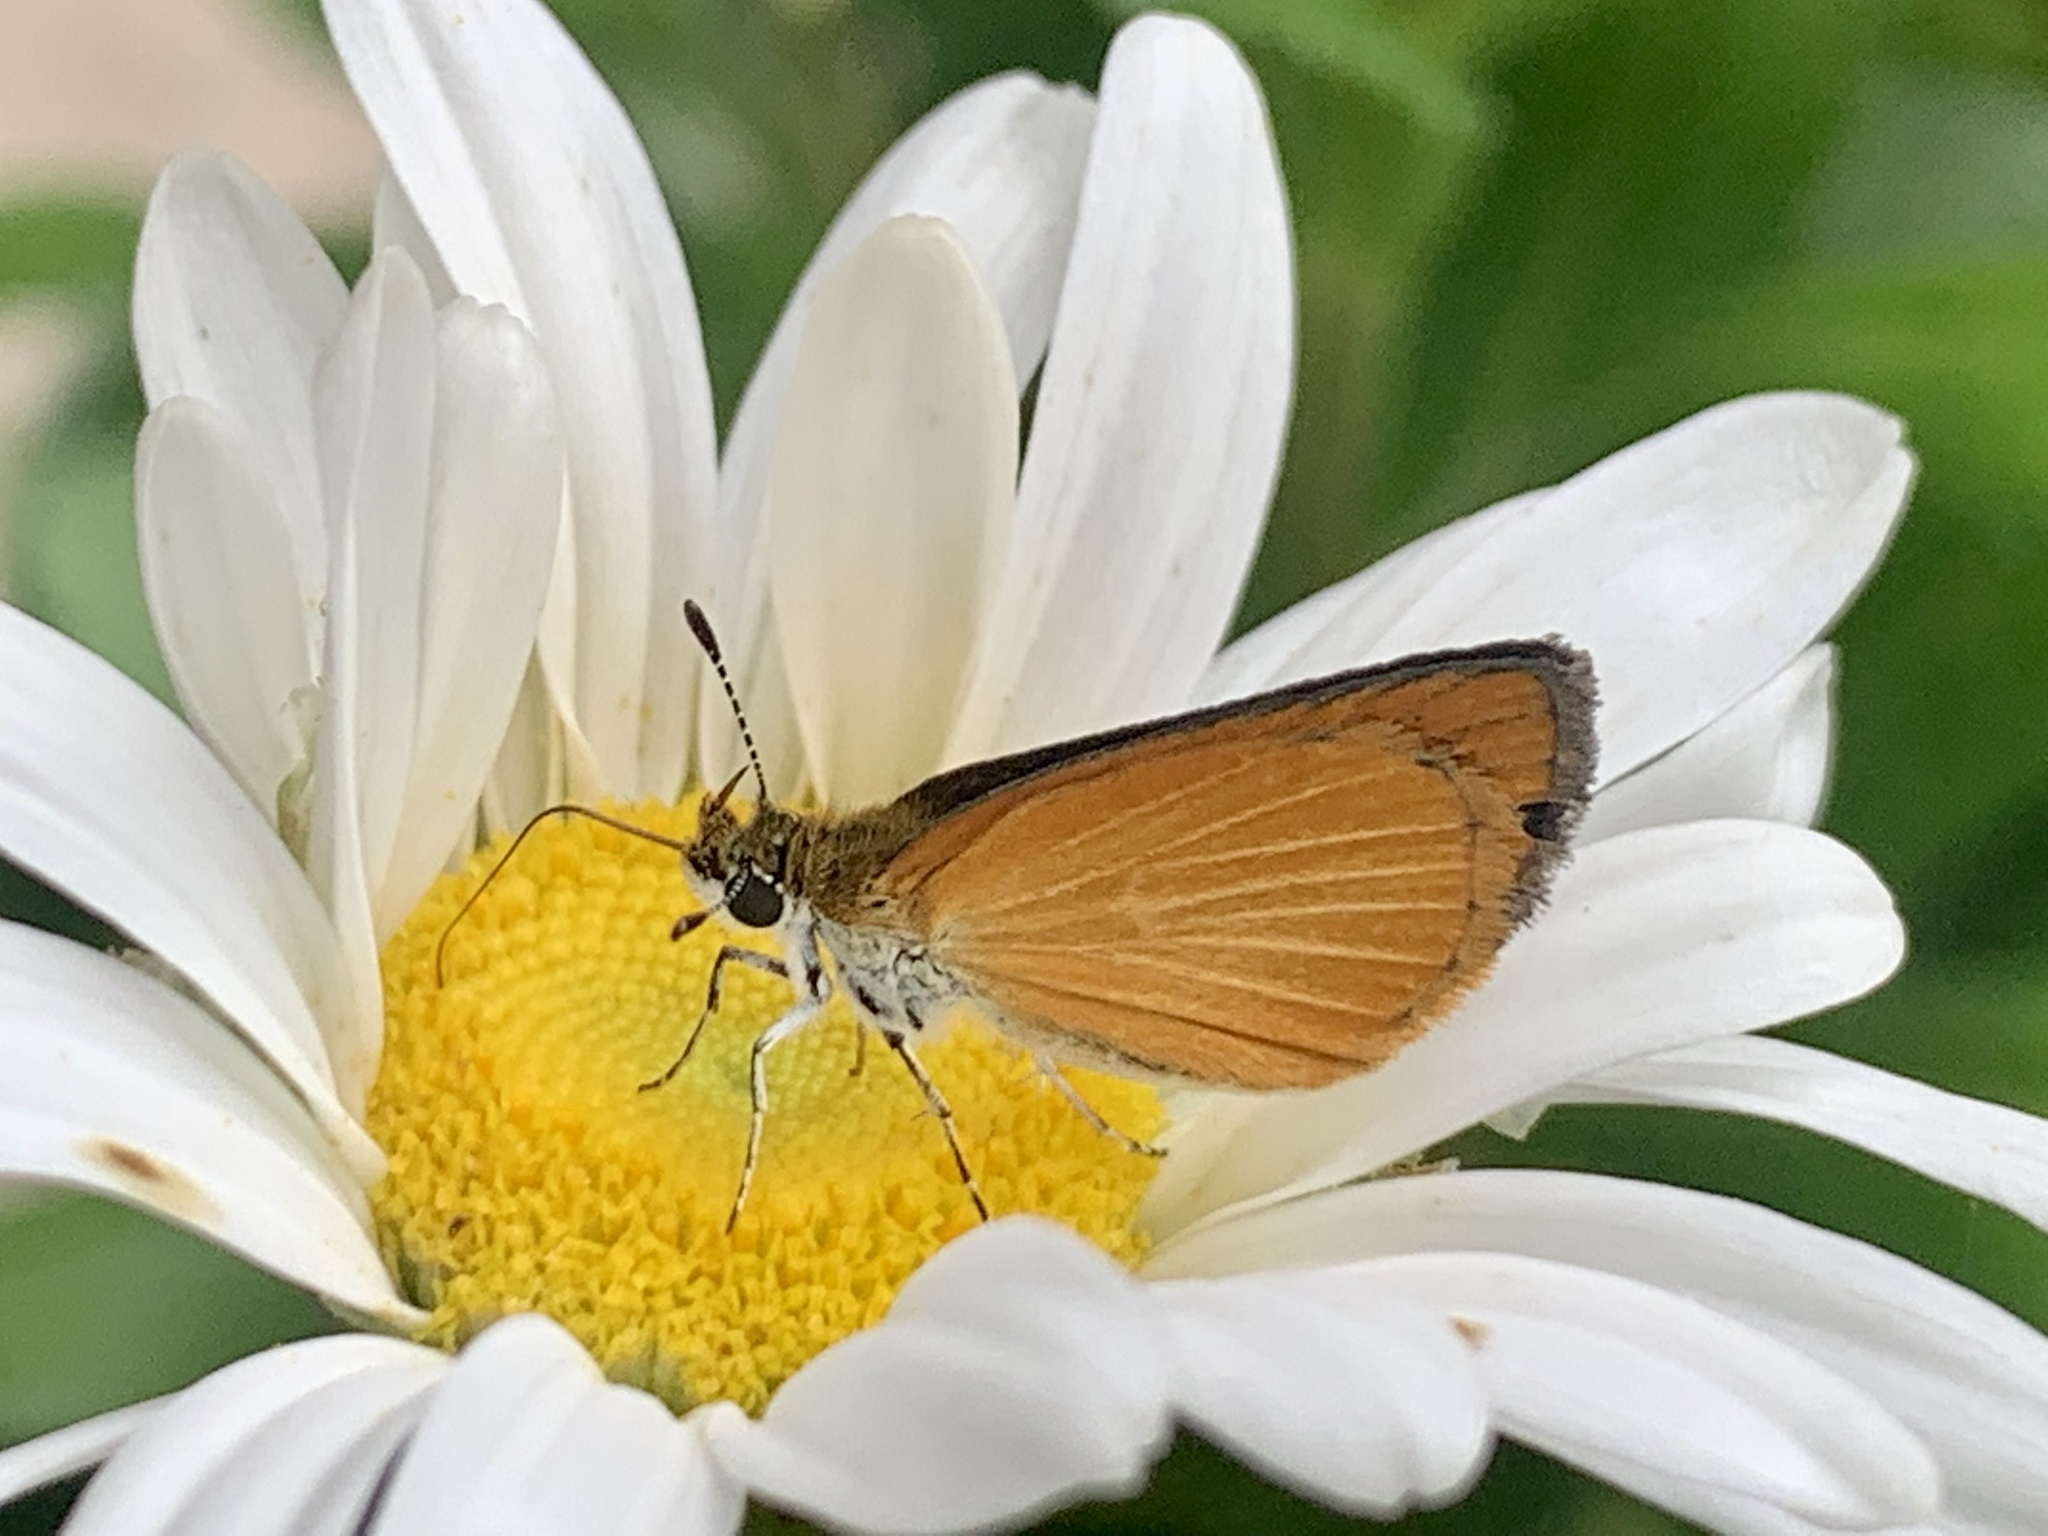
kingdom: Animalia
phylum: Arthropoda
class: Insecta
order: Lepidoptera
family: Hesperiidae
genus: Ancyloxypha
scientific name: Ancyloxypha numitor
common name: Least skipper
